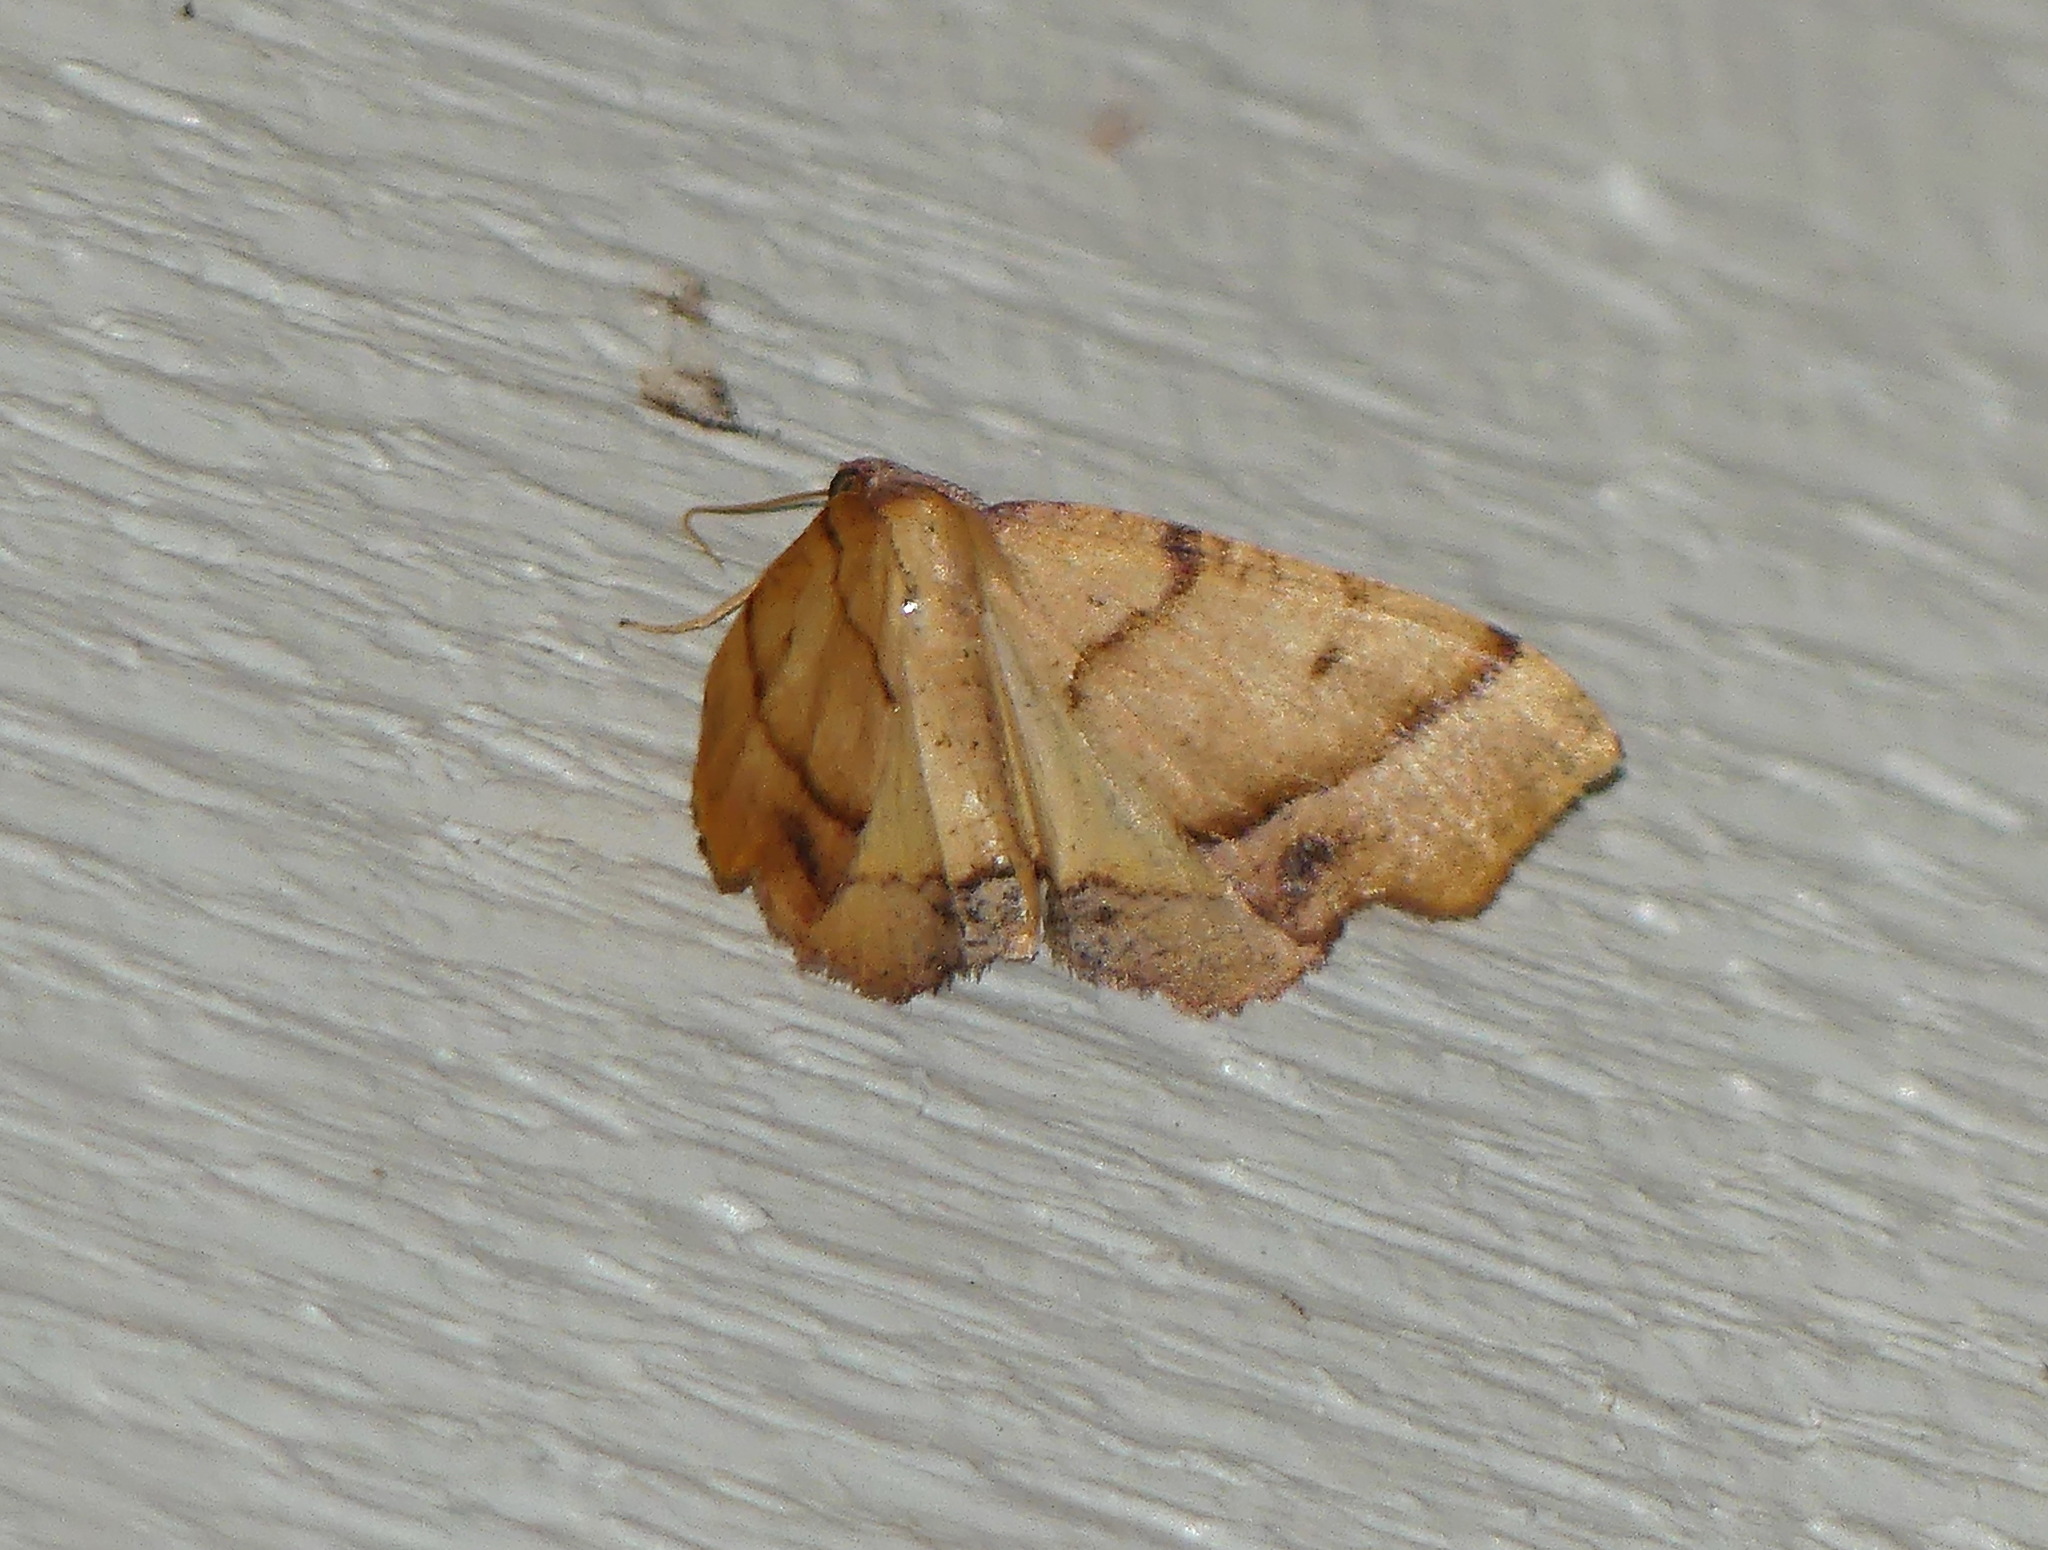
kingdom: Animalia
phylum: Arthropoda
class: Insecta
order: Lepidoptera
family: Geometridae
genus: Plagodis
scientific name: Plagodis phlogosaria
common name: Straight-lined plagodis
